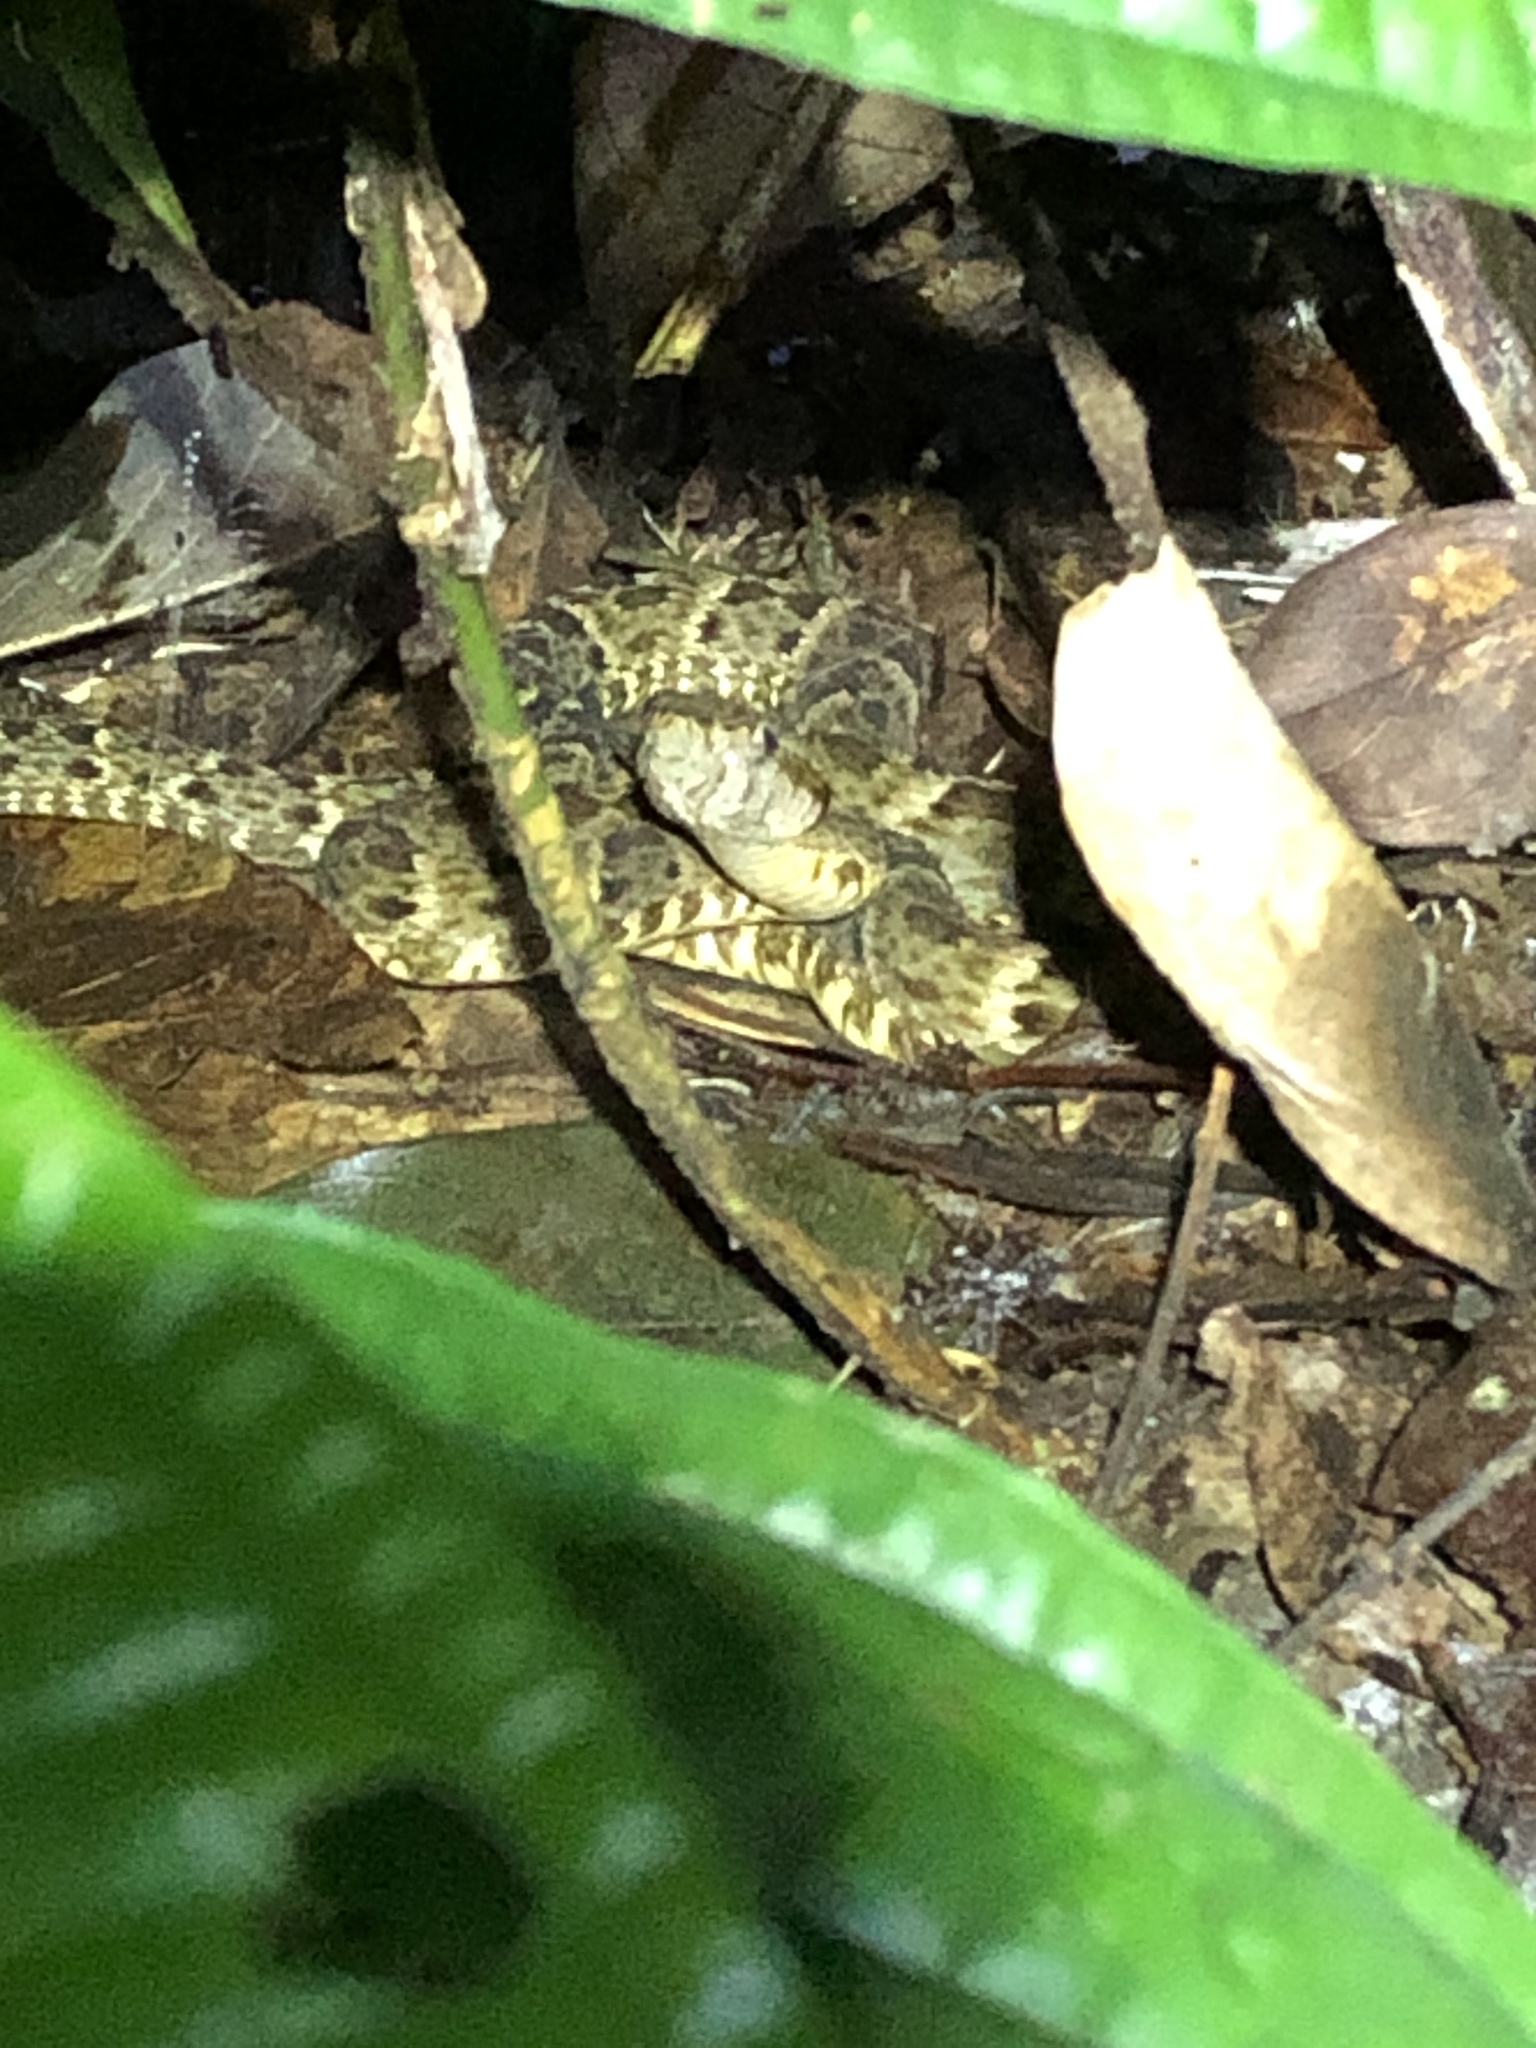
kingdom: Animalia
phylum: Chordata
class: Squamata
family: Viperidae
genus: Bothrops
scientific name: Bothrops atrox
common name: Common lancehead
